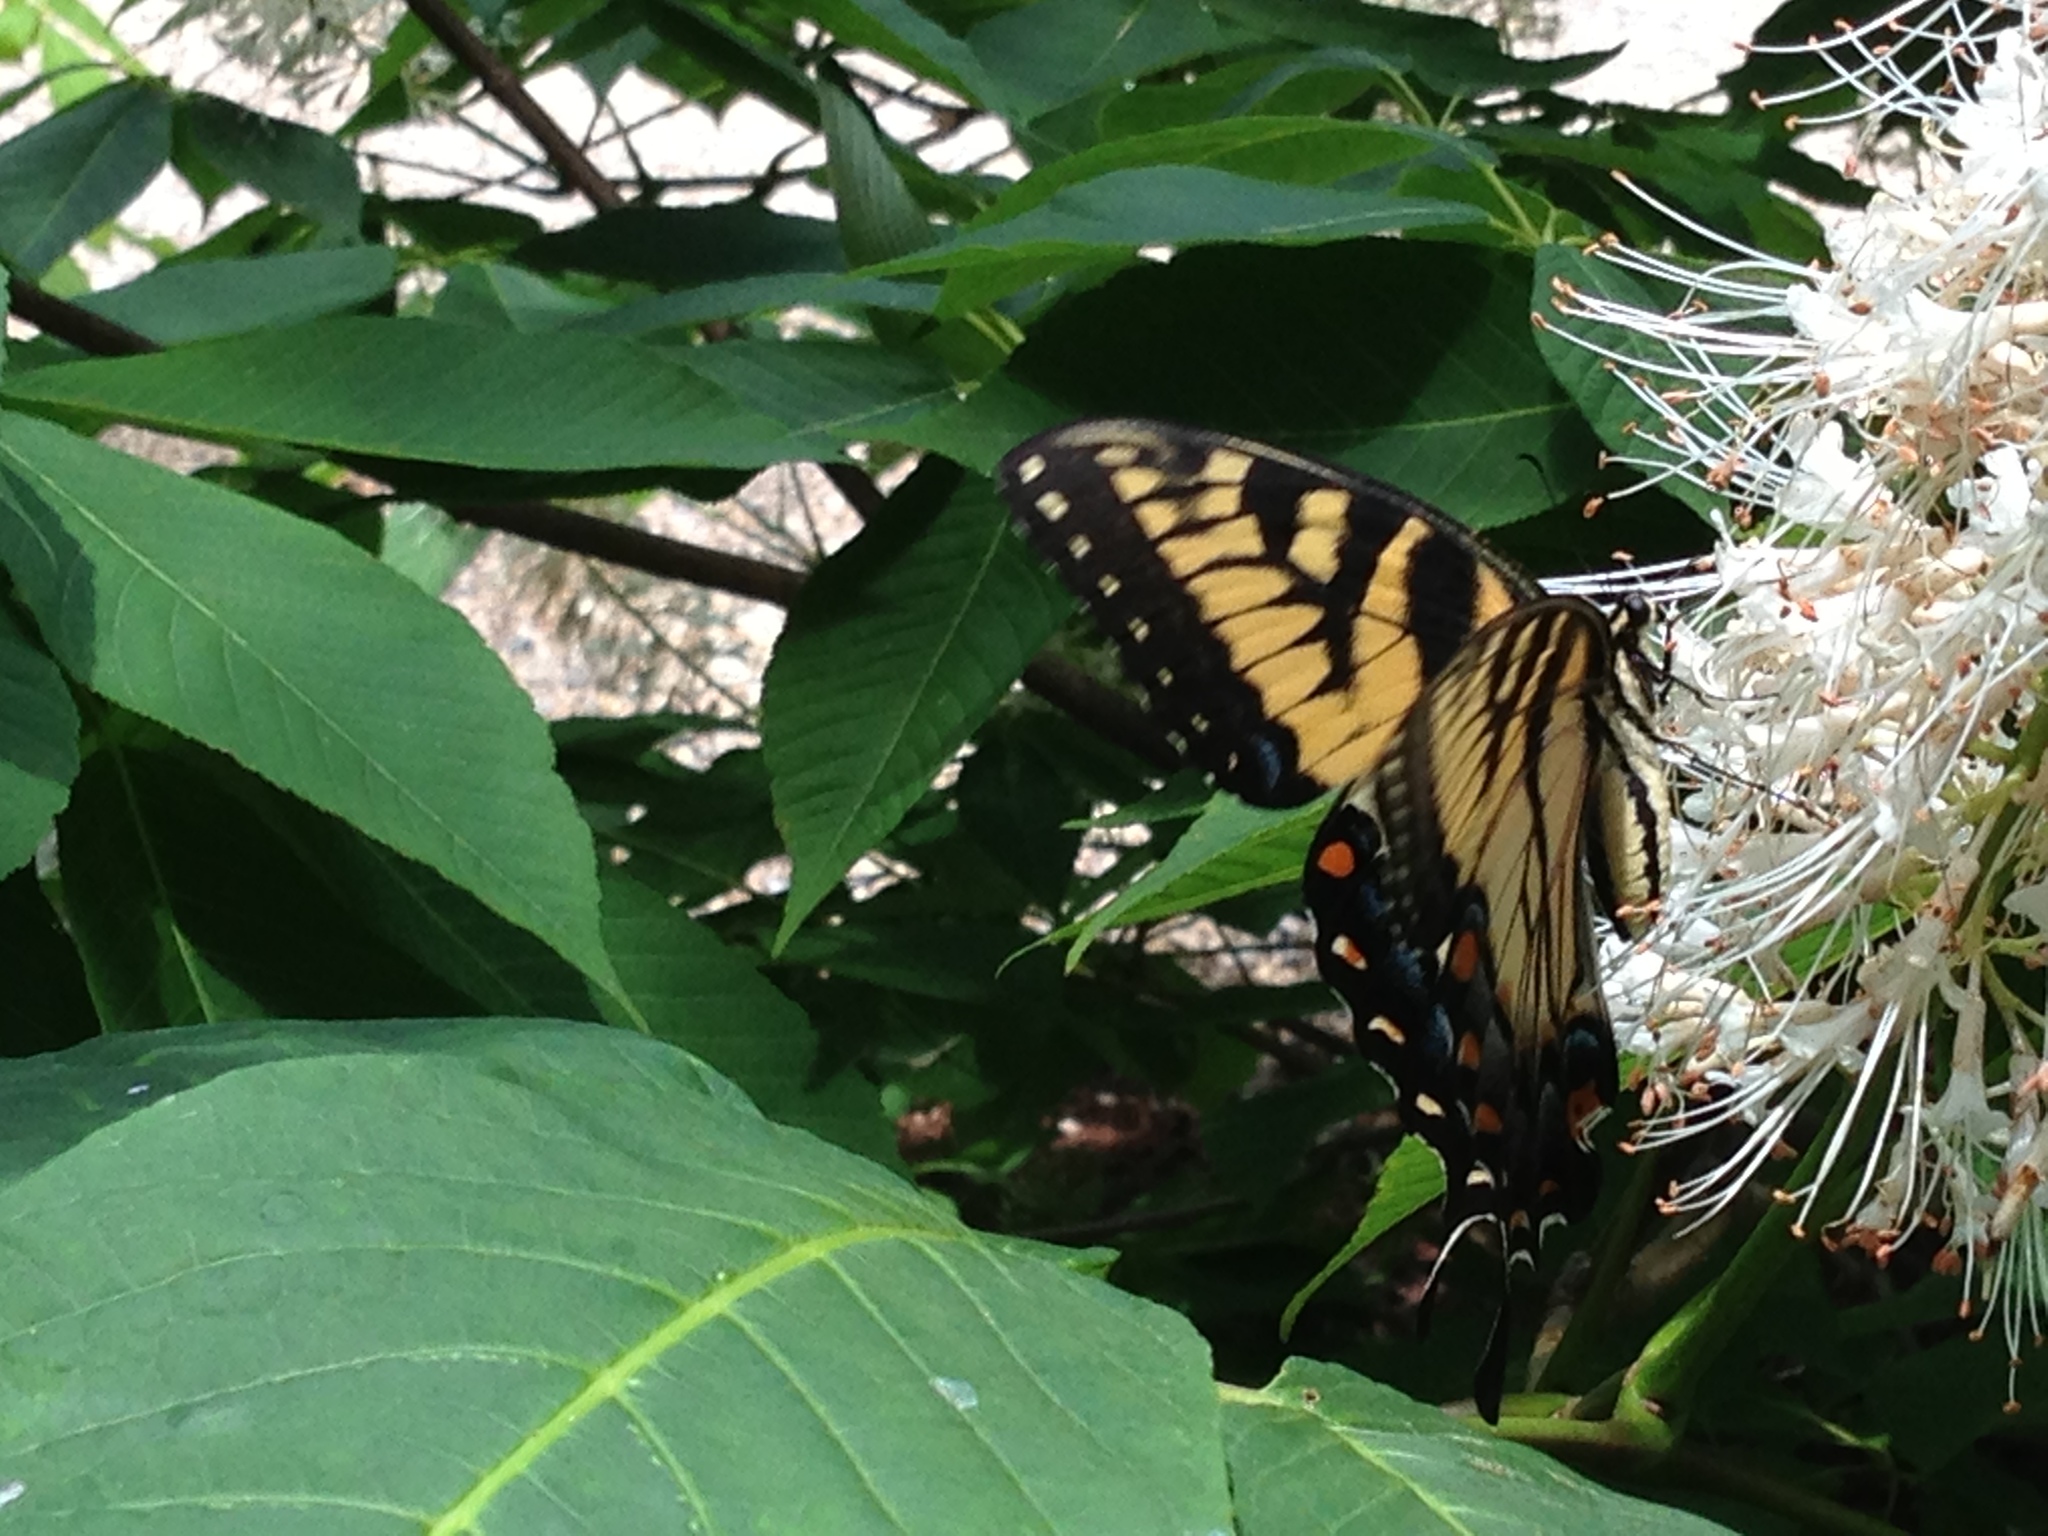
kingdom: Animalia
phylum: Arthropoda
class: Insecta
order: Lepidoptera
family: Papilionidae
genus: Papilio
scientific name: Papilio glaucus
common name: Tiger swallowtail
